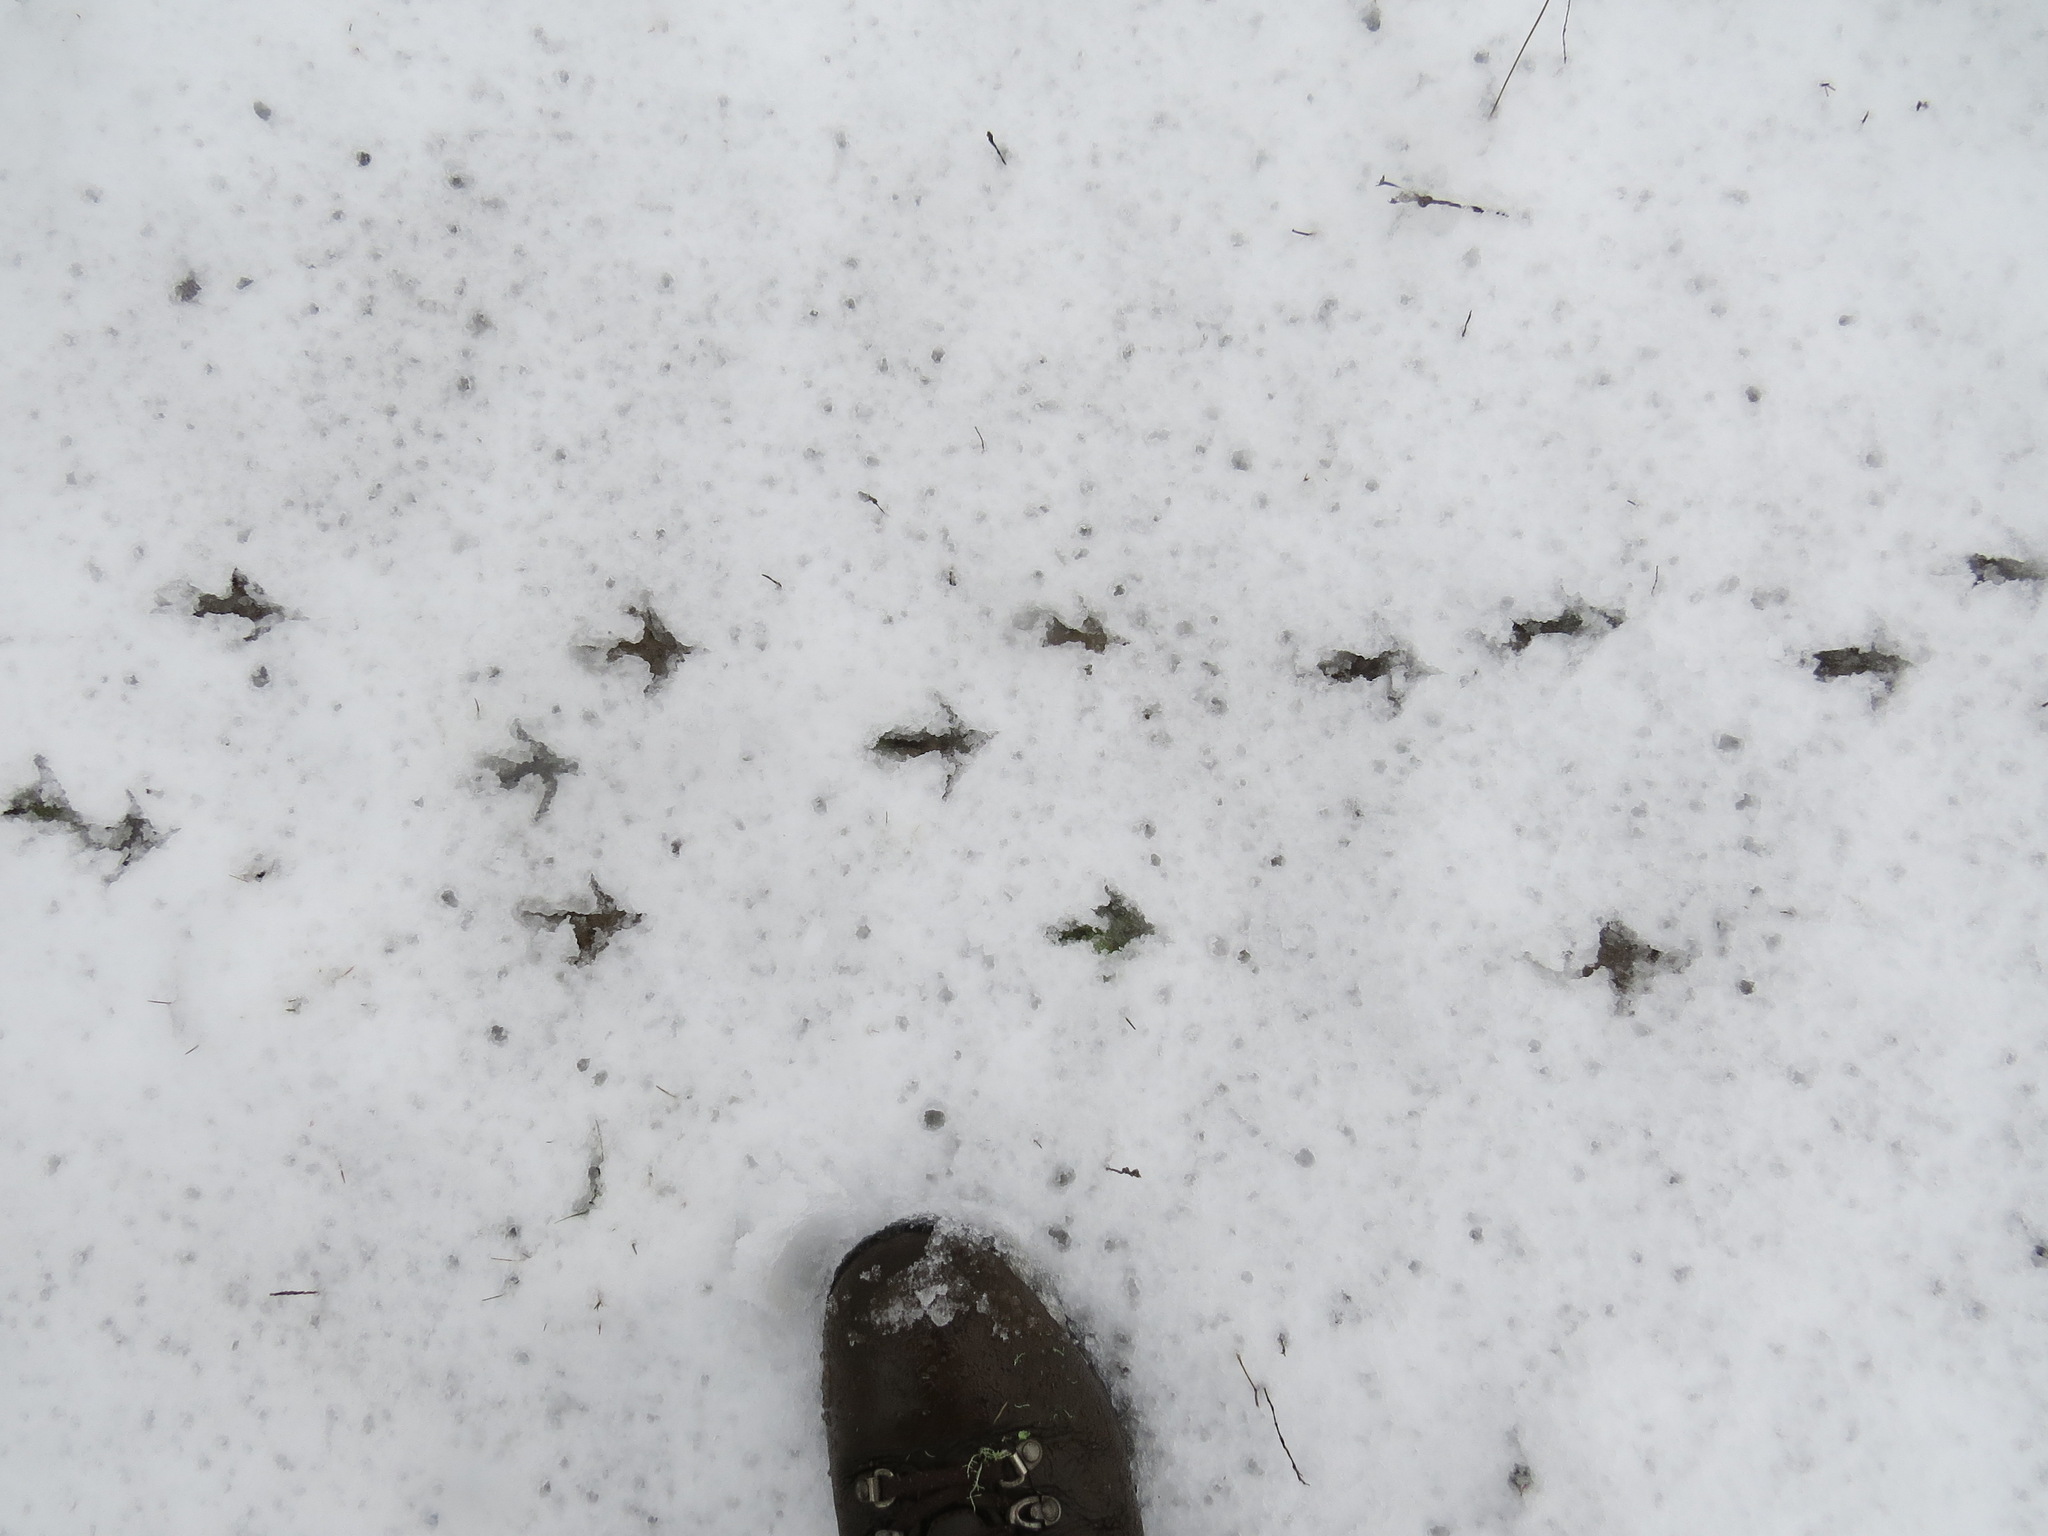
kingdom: Animalia
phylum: Chordata
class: Aves
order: Galliformes
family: Odontophoridae
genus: Callipepla
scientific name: Callipepla californica
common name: California quail
